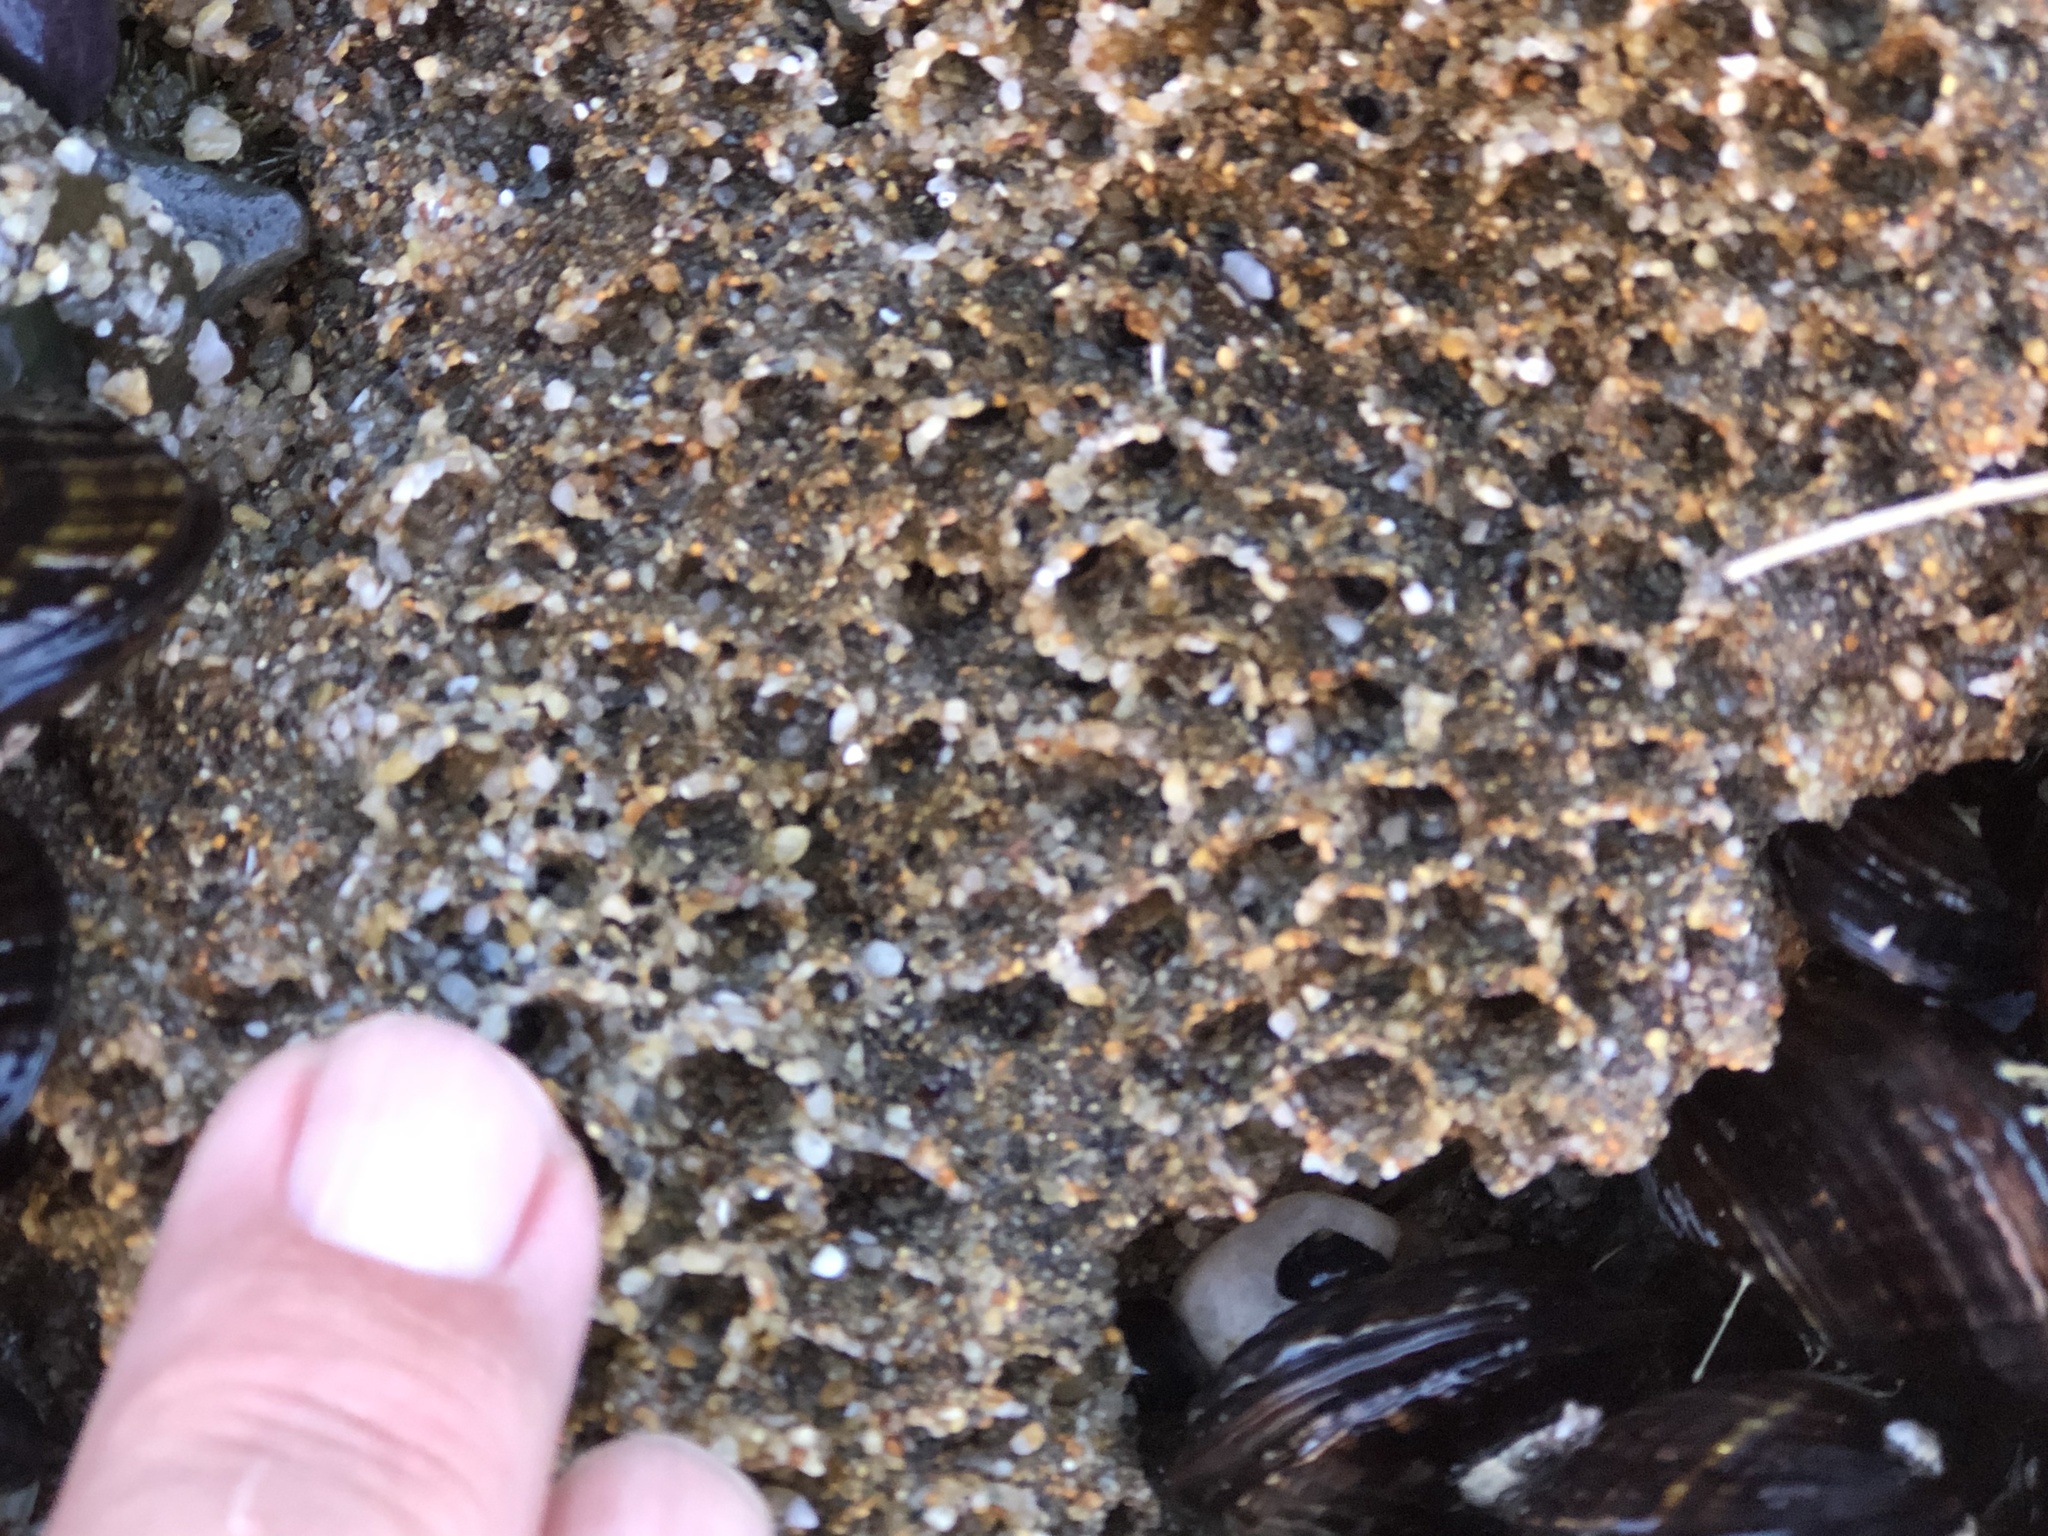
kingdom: Animalia
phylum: Annelida
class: Polychaeta
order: Sabellida
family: Sabellariidae
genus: Phragmatopoma
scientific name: Phragmatopoma californica
